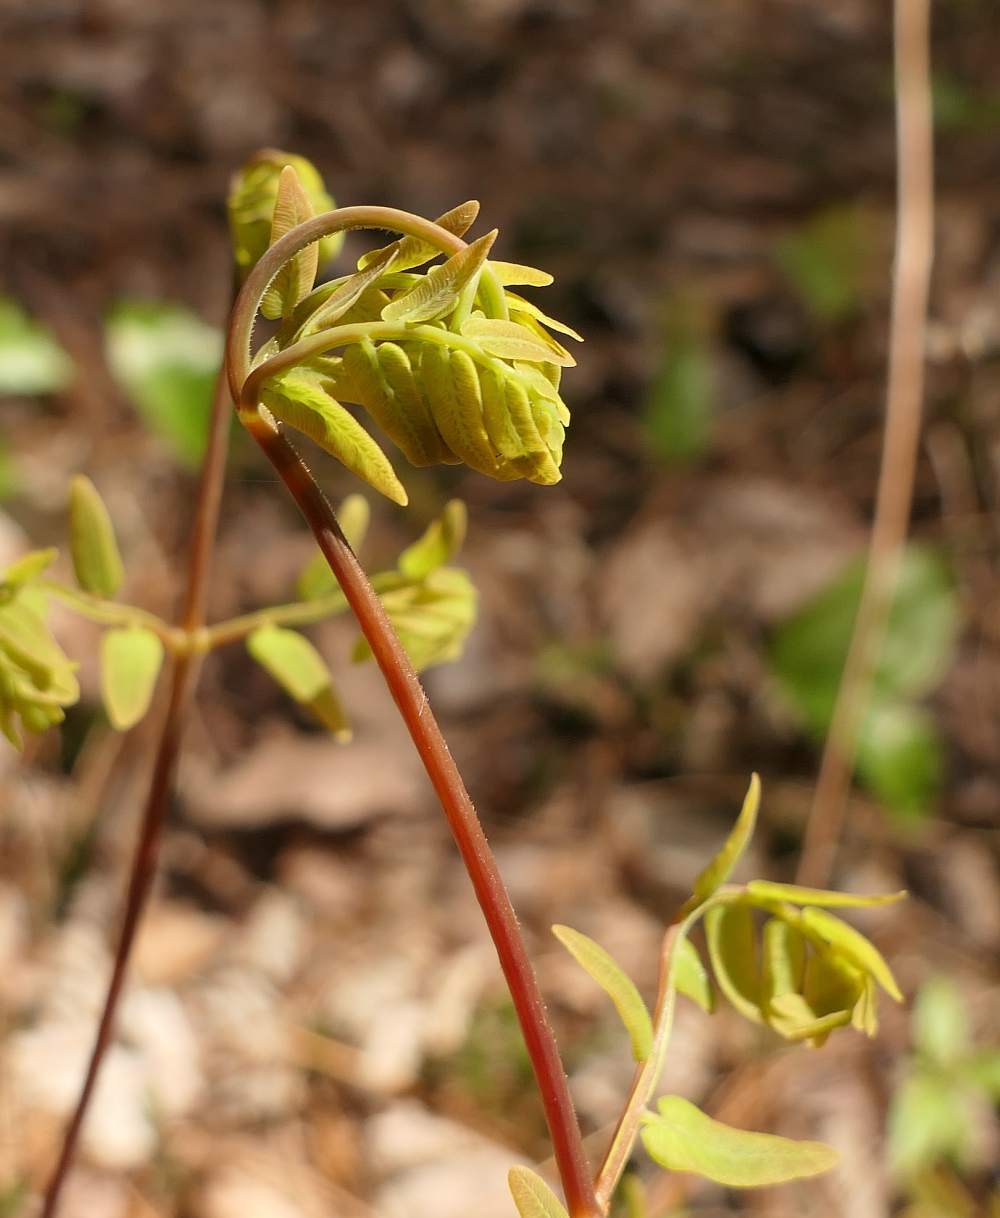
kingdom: Plantae
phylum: Tracheophyta
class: Polypodiopsida
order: Osmundales
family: Osmundaceae
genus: Osmunda
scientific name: Osmunda spectabilis
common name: American royal fern
